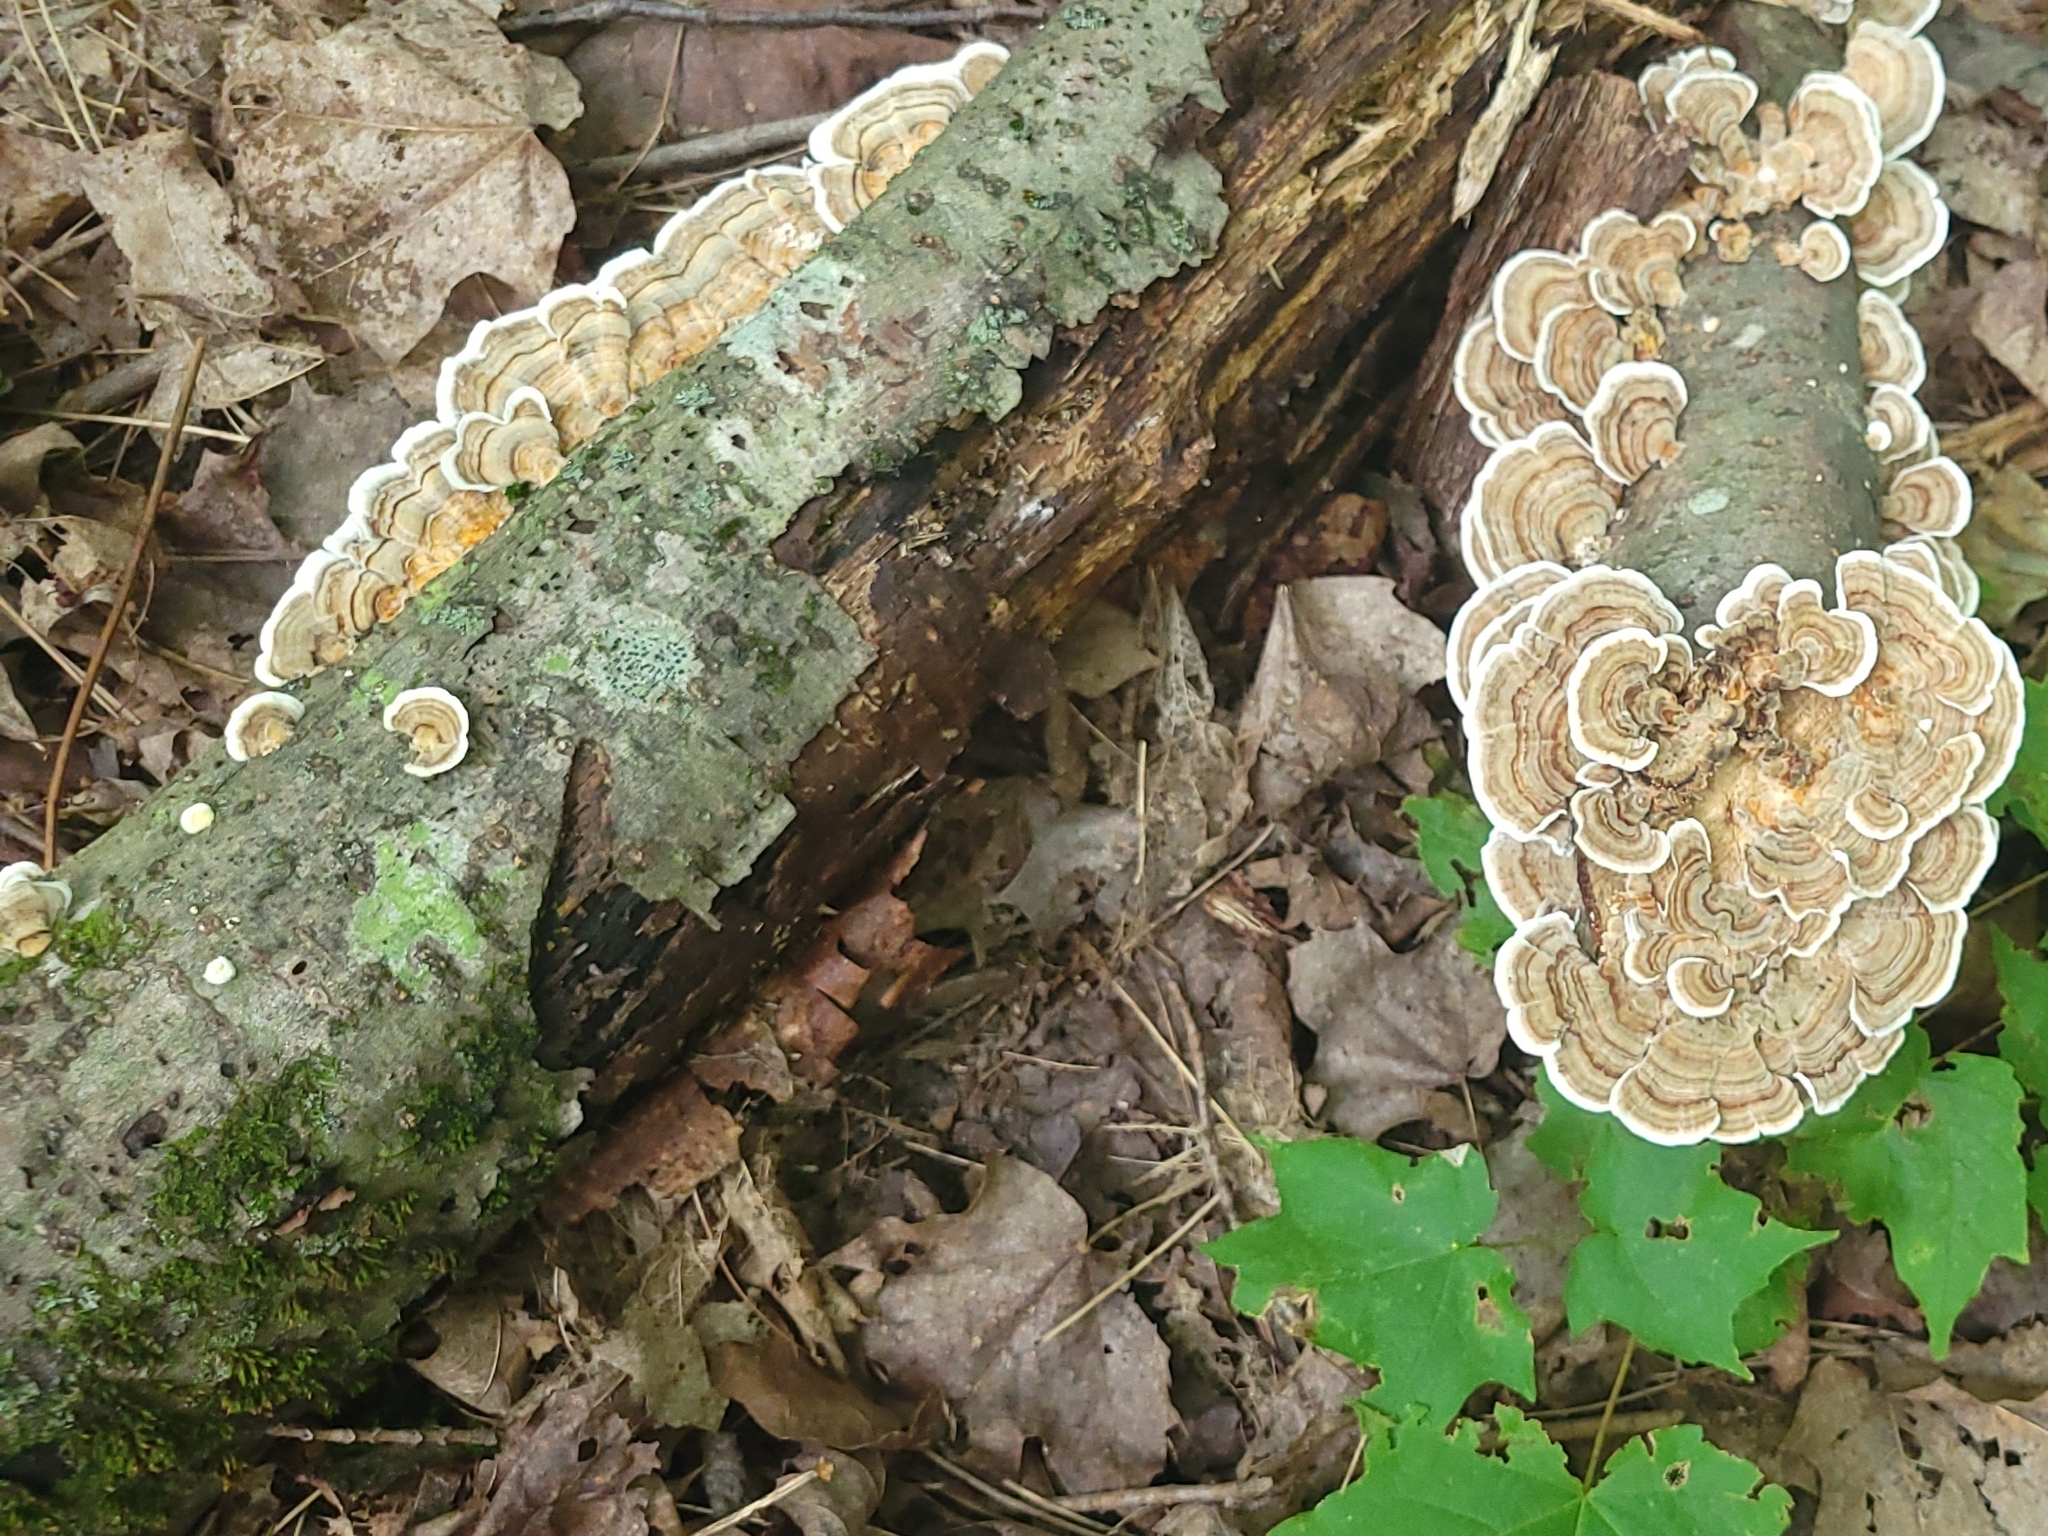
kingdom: Fungi
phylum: Basidiomycota
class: Agaricomycetes
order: Polyporales
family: Polyporaceae
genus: Trametes
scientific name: Trametes versicolor
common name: Turkeytail
